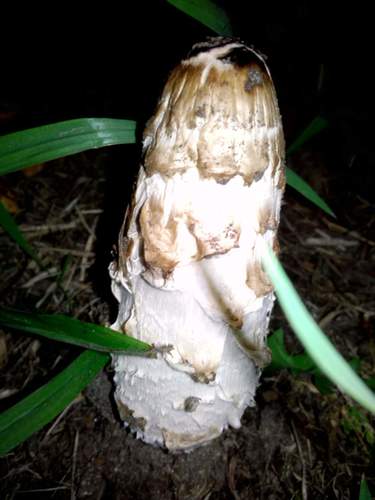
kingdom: Fungi
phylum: Basidiomycota
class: Agaricomycetes
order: Agaricales
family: Agaricaceae
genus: Coprinus
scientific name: Coprinus comatus
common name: Lawyer's wig
